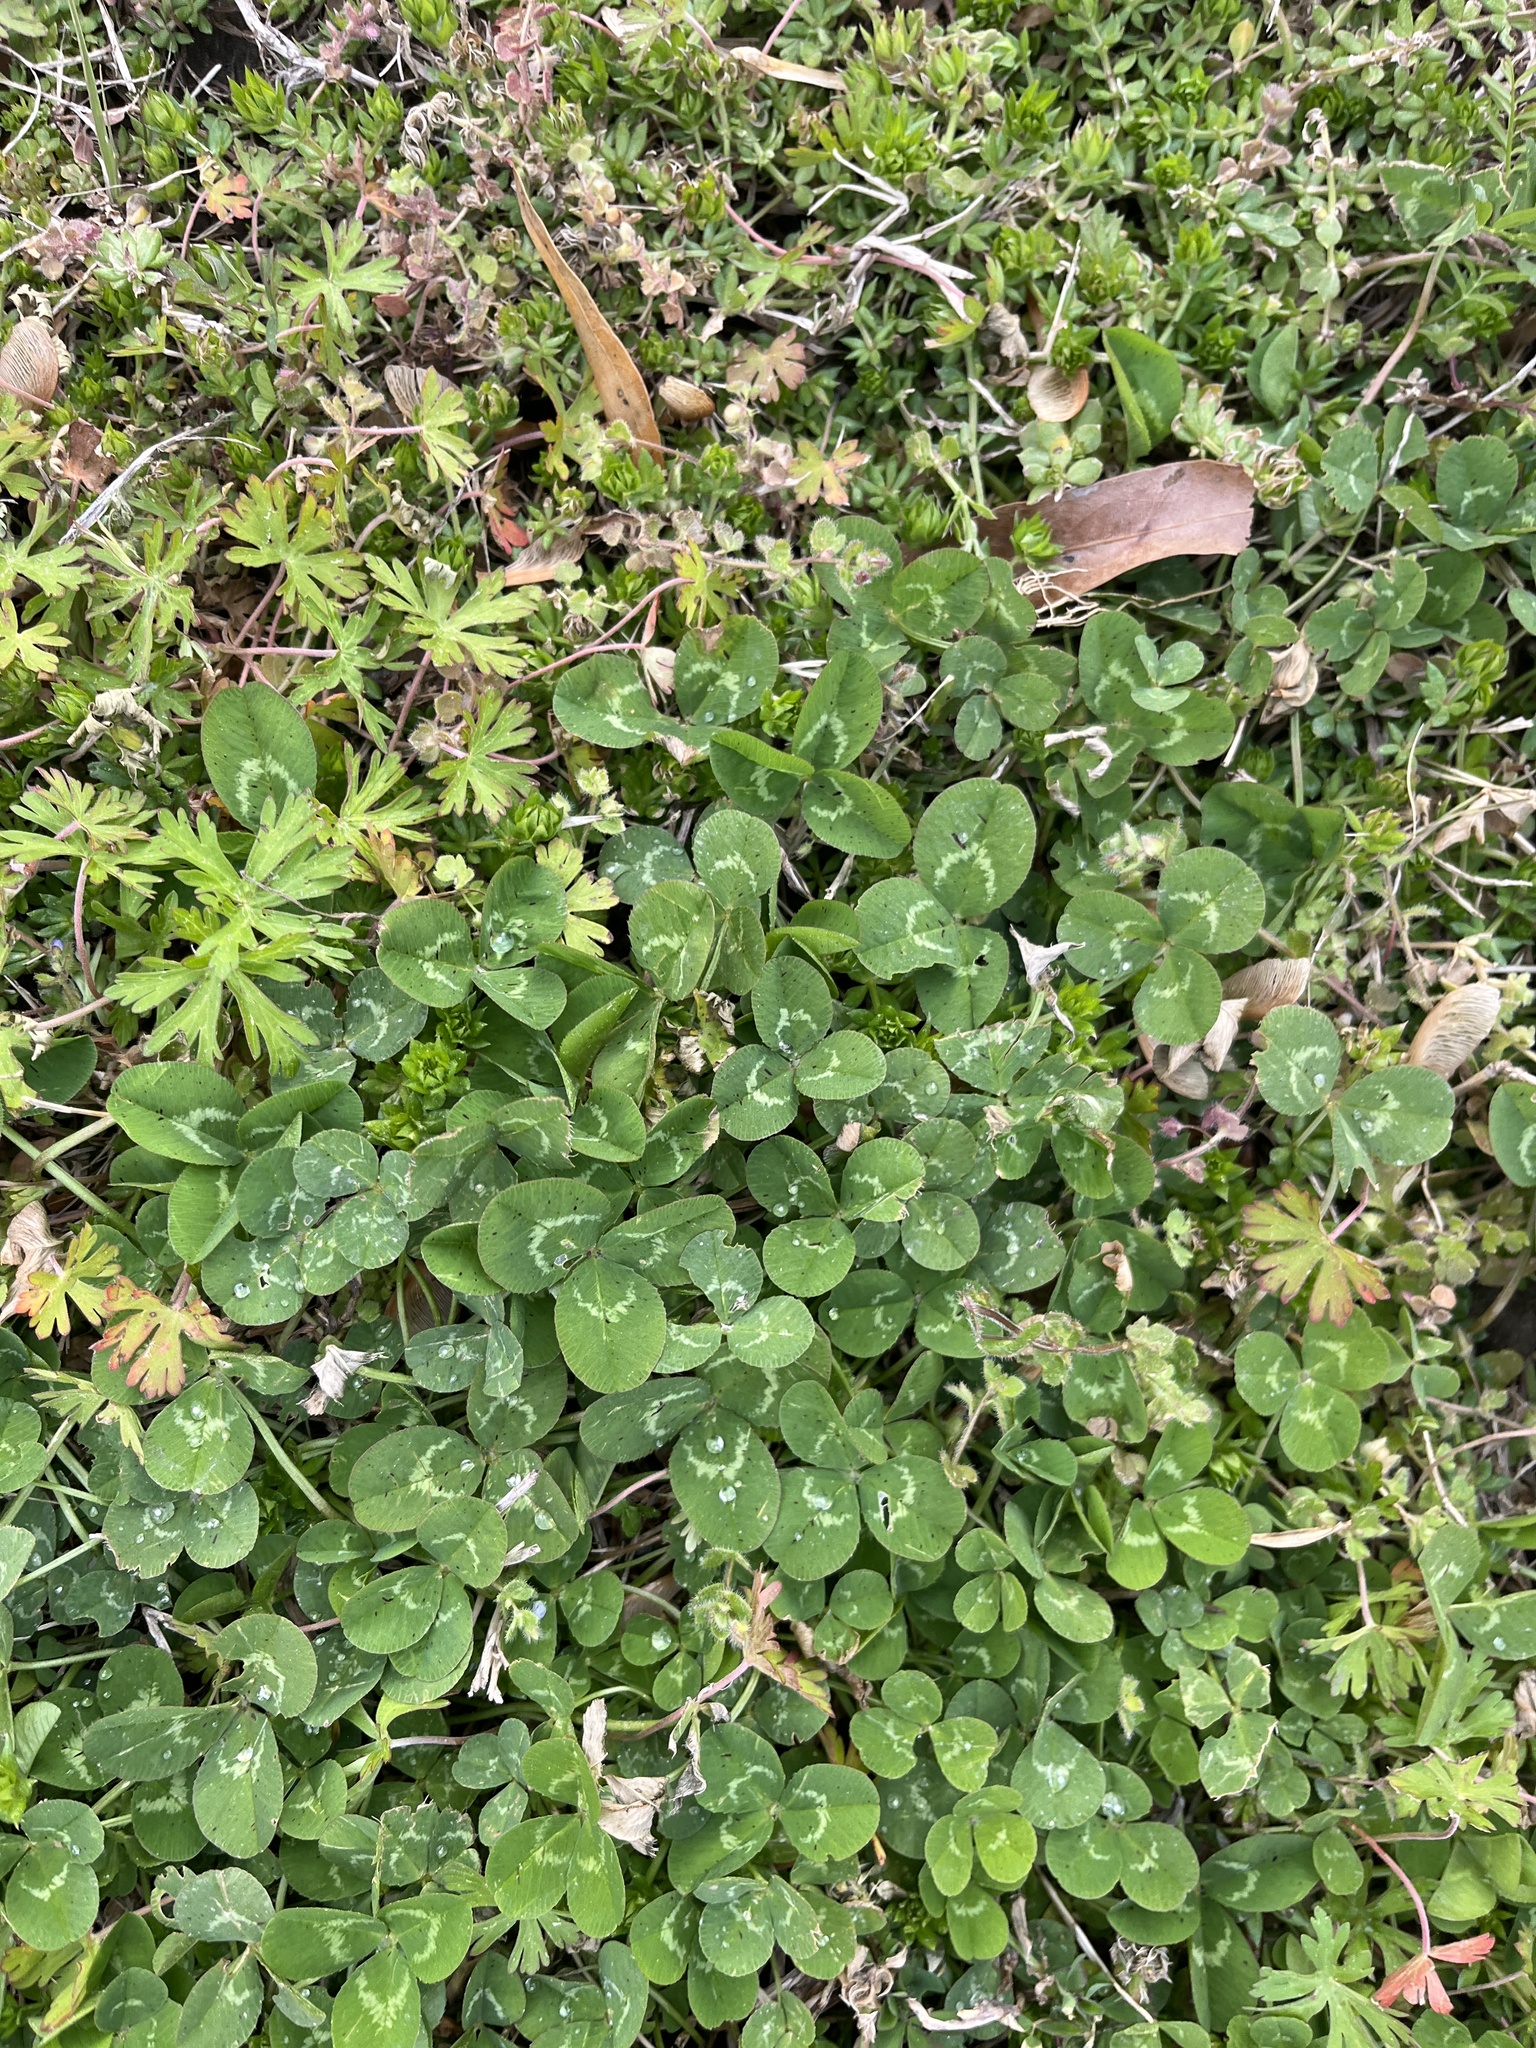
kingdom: Plantae
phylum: Tracheophyta
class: Magnoliopsida
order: Fabales
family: Fabaceae
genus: Trifolium
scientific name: Trifolium repens
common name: White clover
